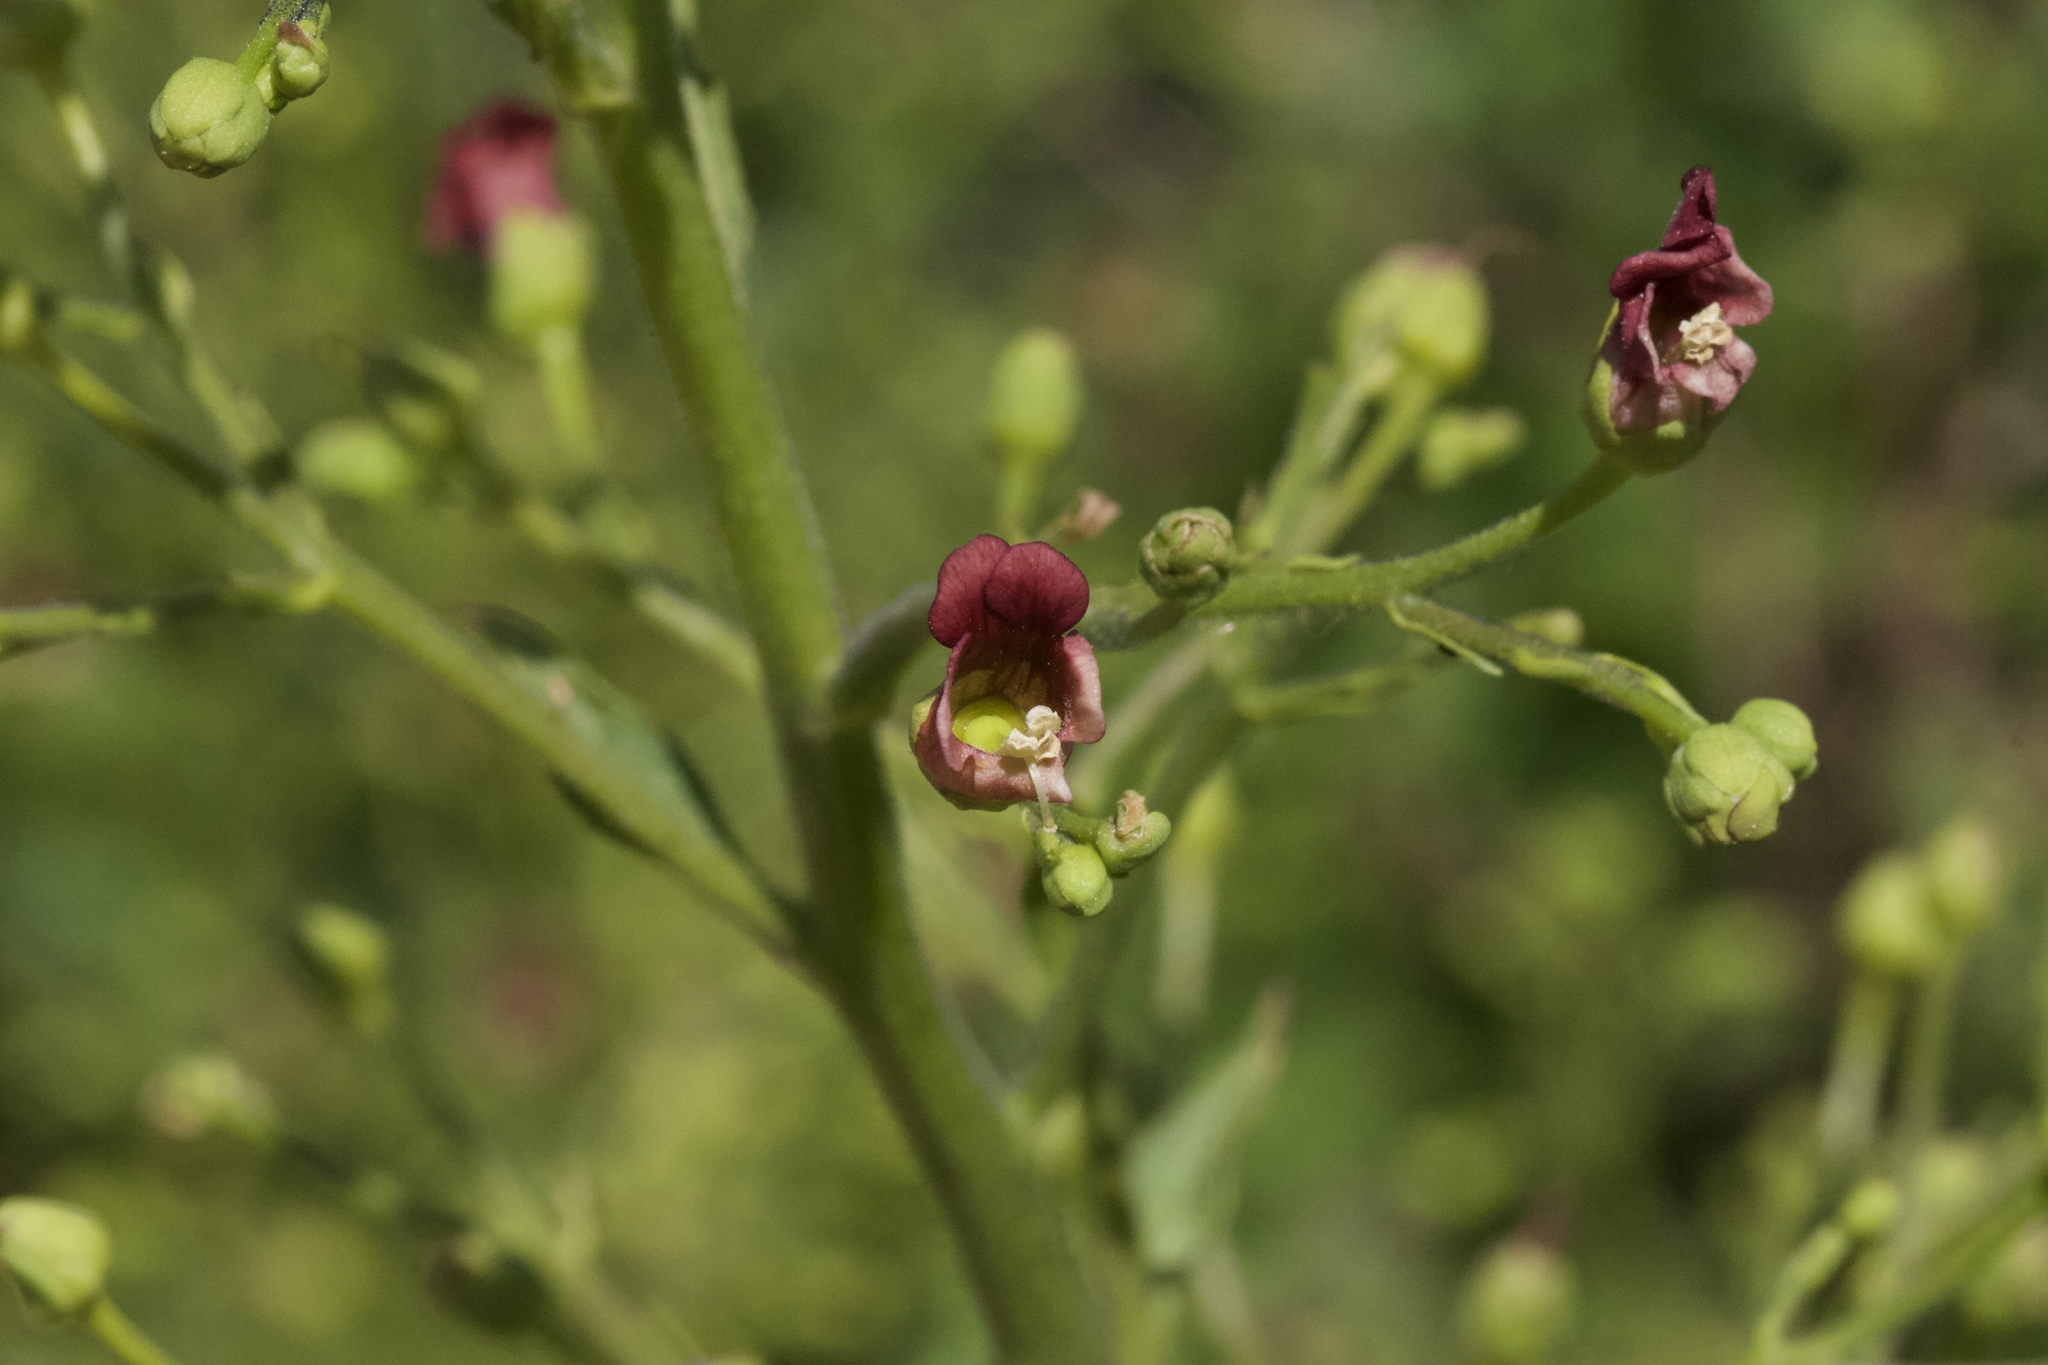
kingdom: Plantae
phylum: Tracheophyta
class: Magnoliopsida
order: Lamiales
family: Scrophulariaceae
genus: Scrophularia
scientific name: Scrophularia californica
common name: California figwort
